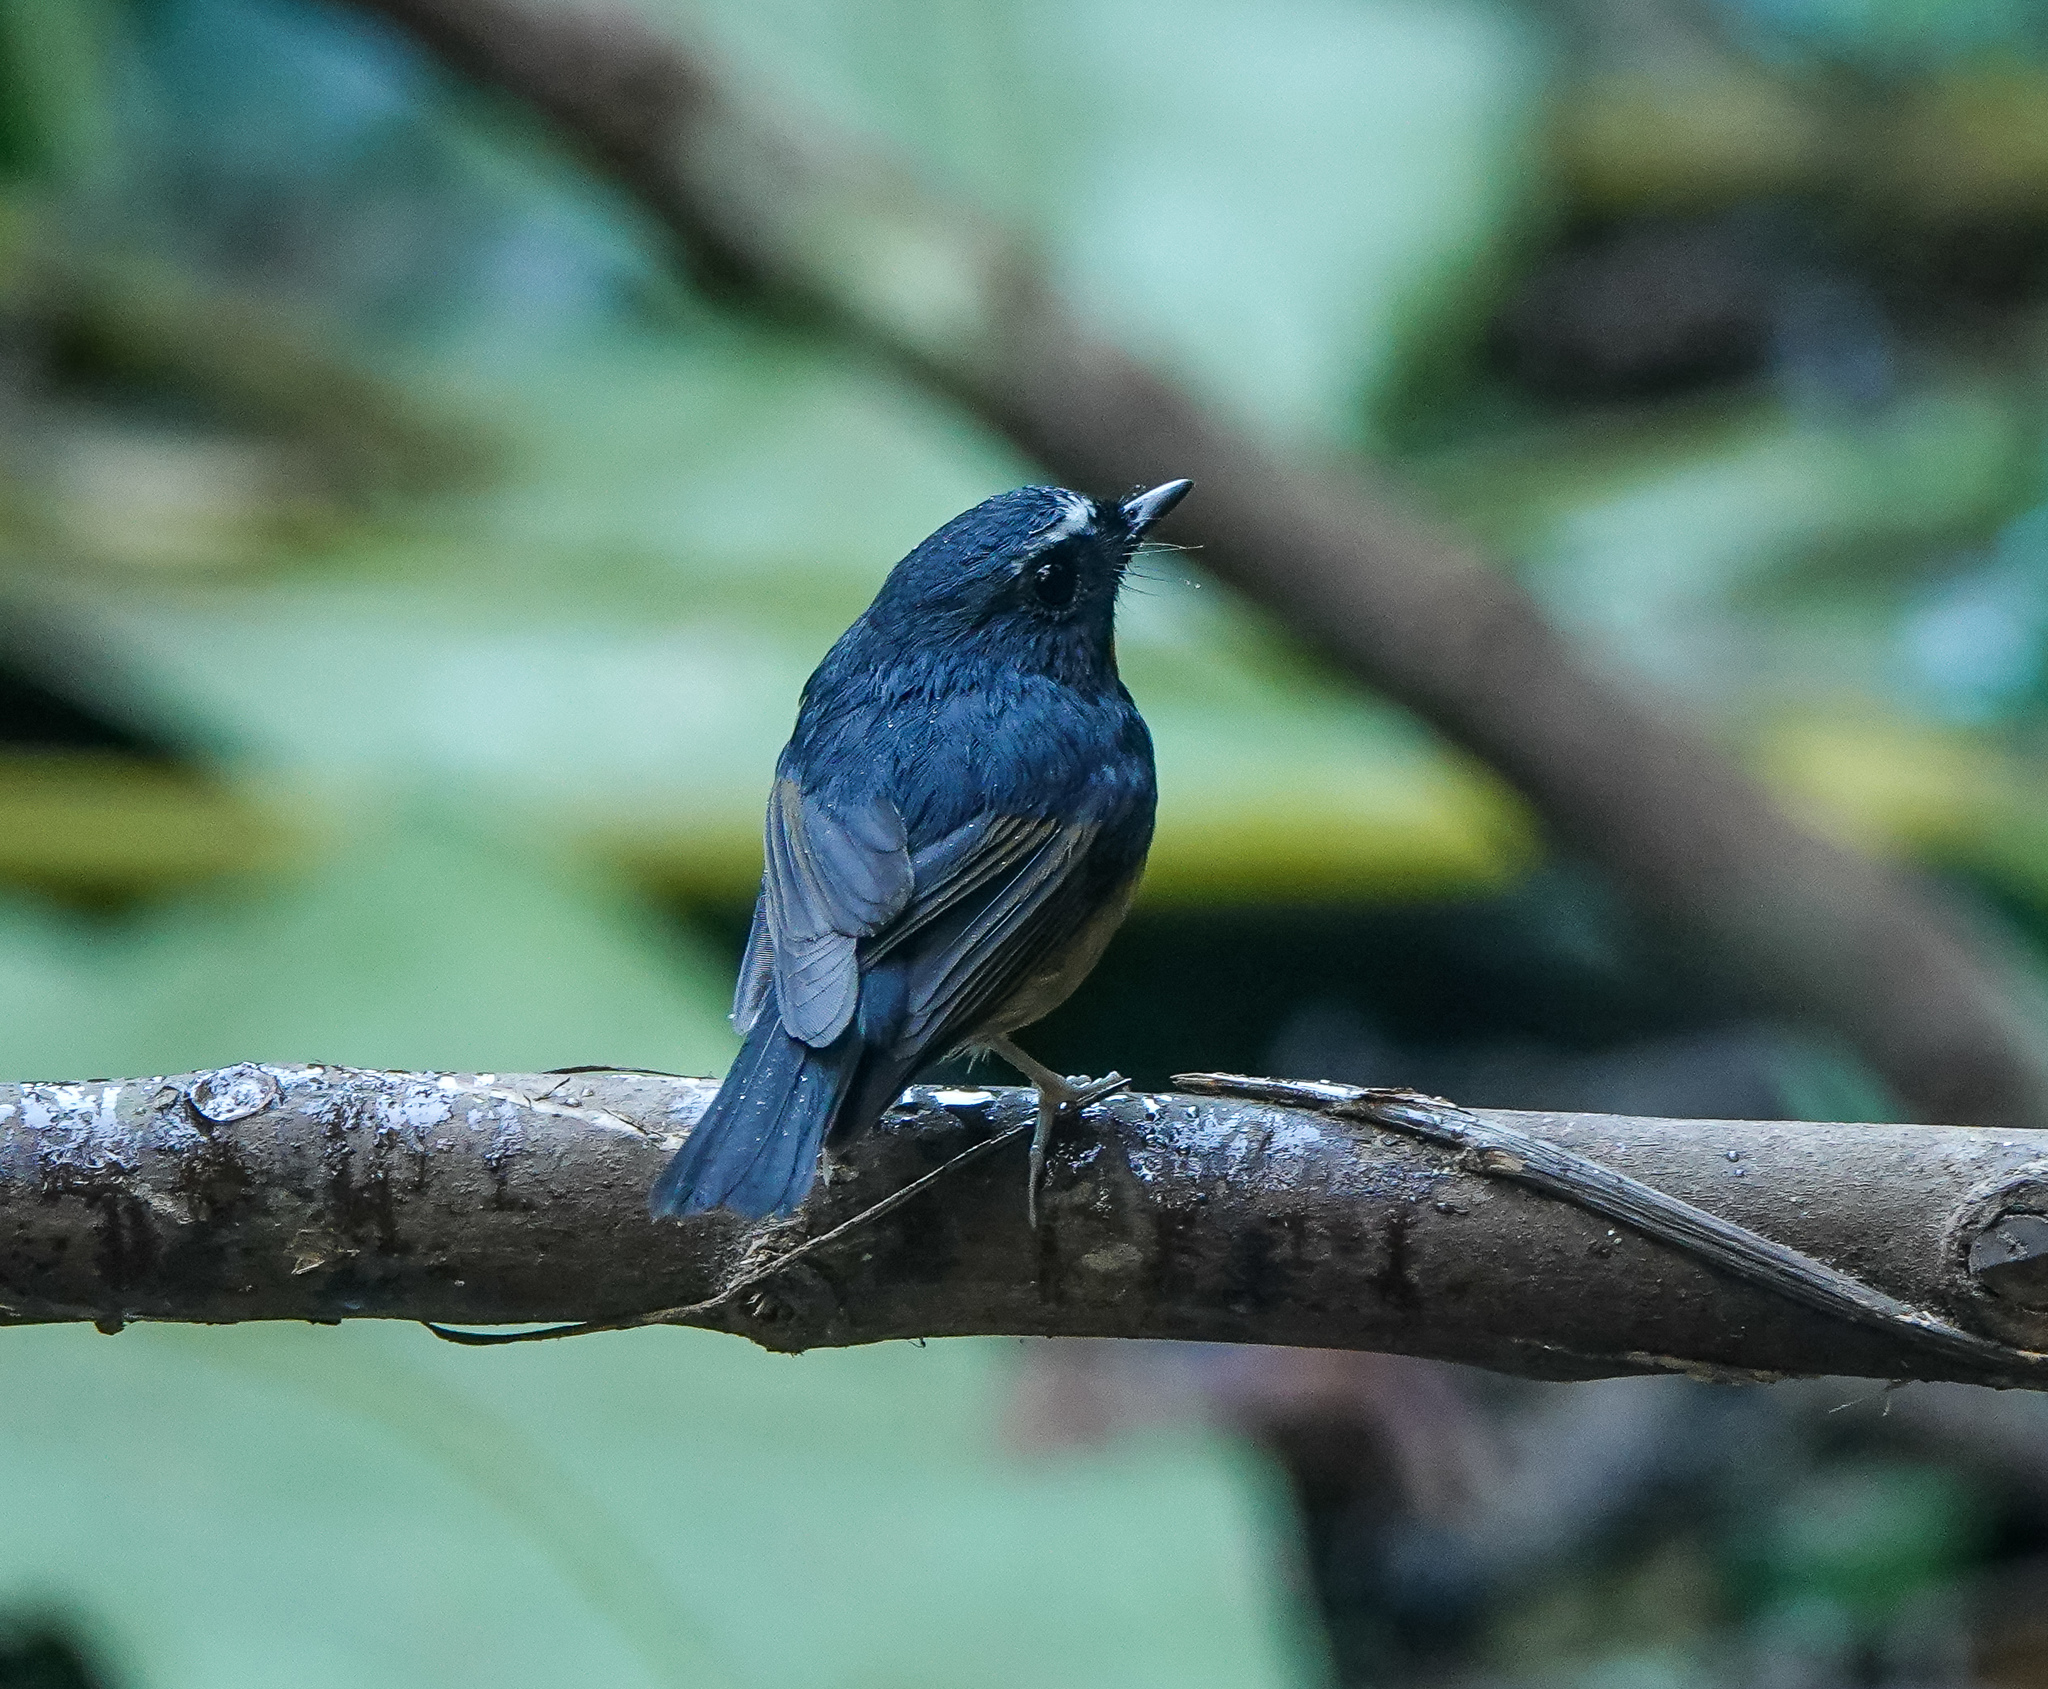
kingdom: Animalia
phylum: Chordata
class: Aves
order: Passeriformes
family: Muscicapidae
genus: Ficedula
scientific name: Ficedula hyperythra
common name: Snowy-browed flycatcher
